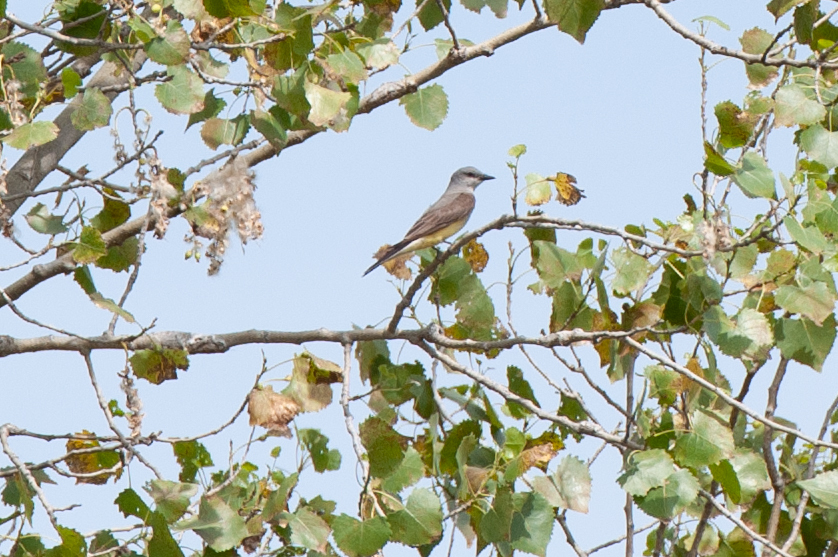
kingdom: Animalia
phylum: Chordata
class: Aves
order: Passeriformes
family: Tyrannidae
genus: Tyrannus
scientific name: Tyrannus verticalis
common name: Western kingbird
